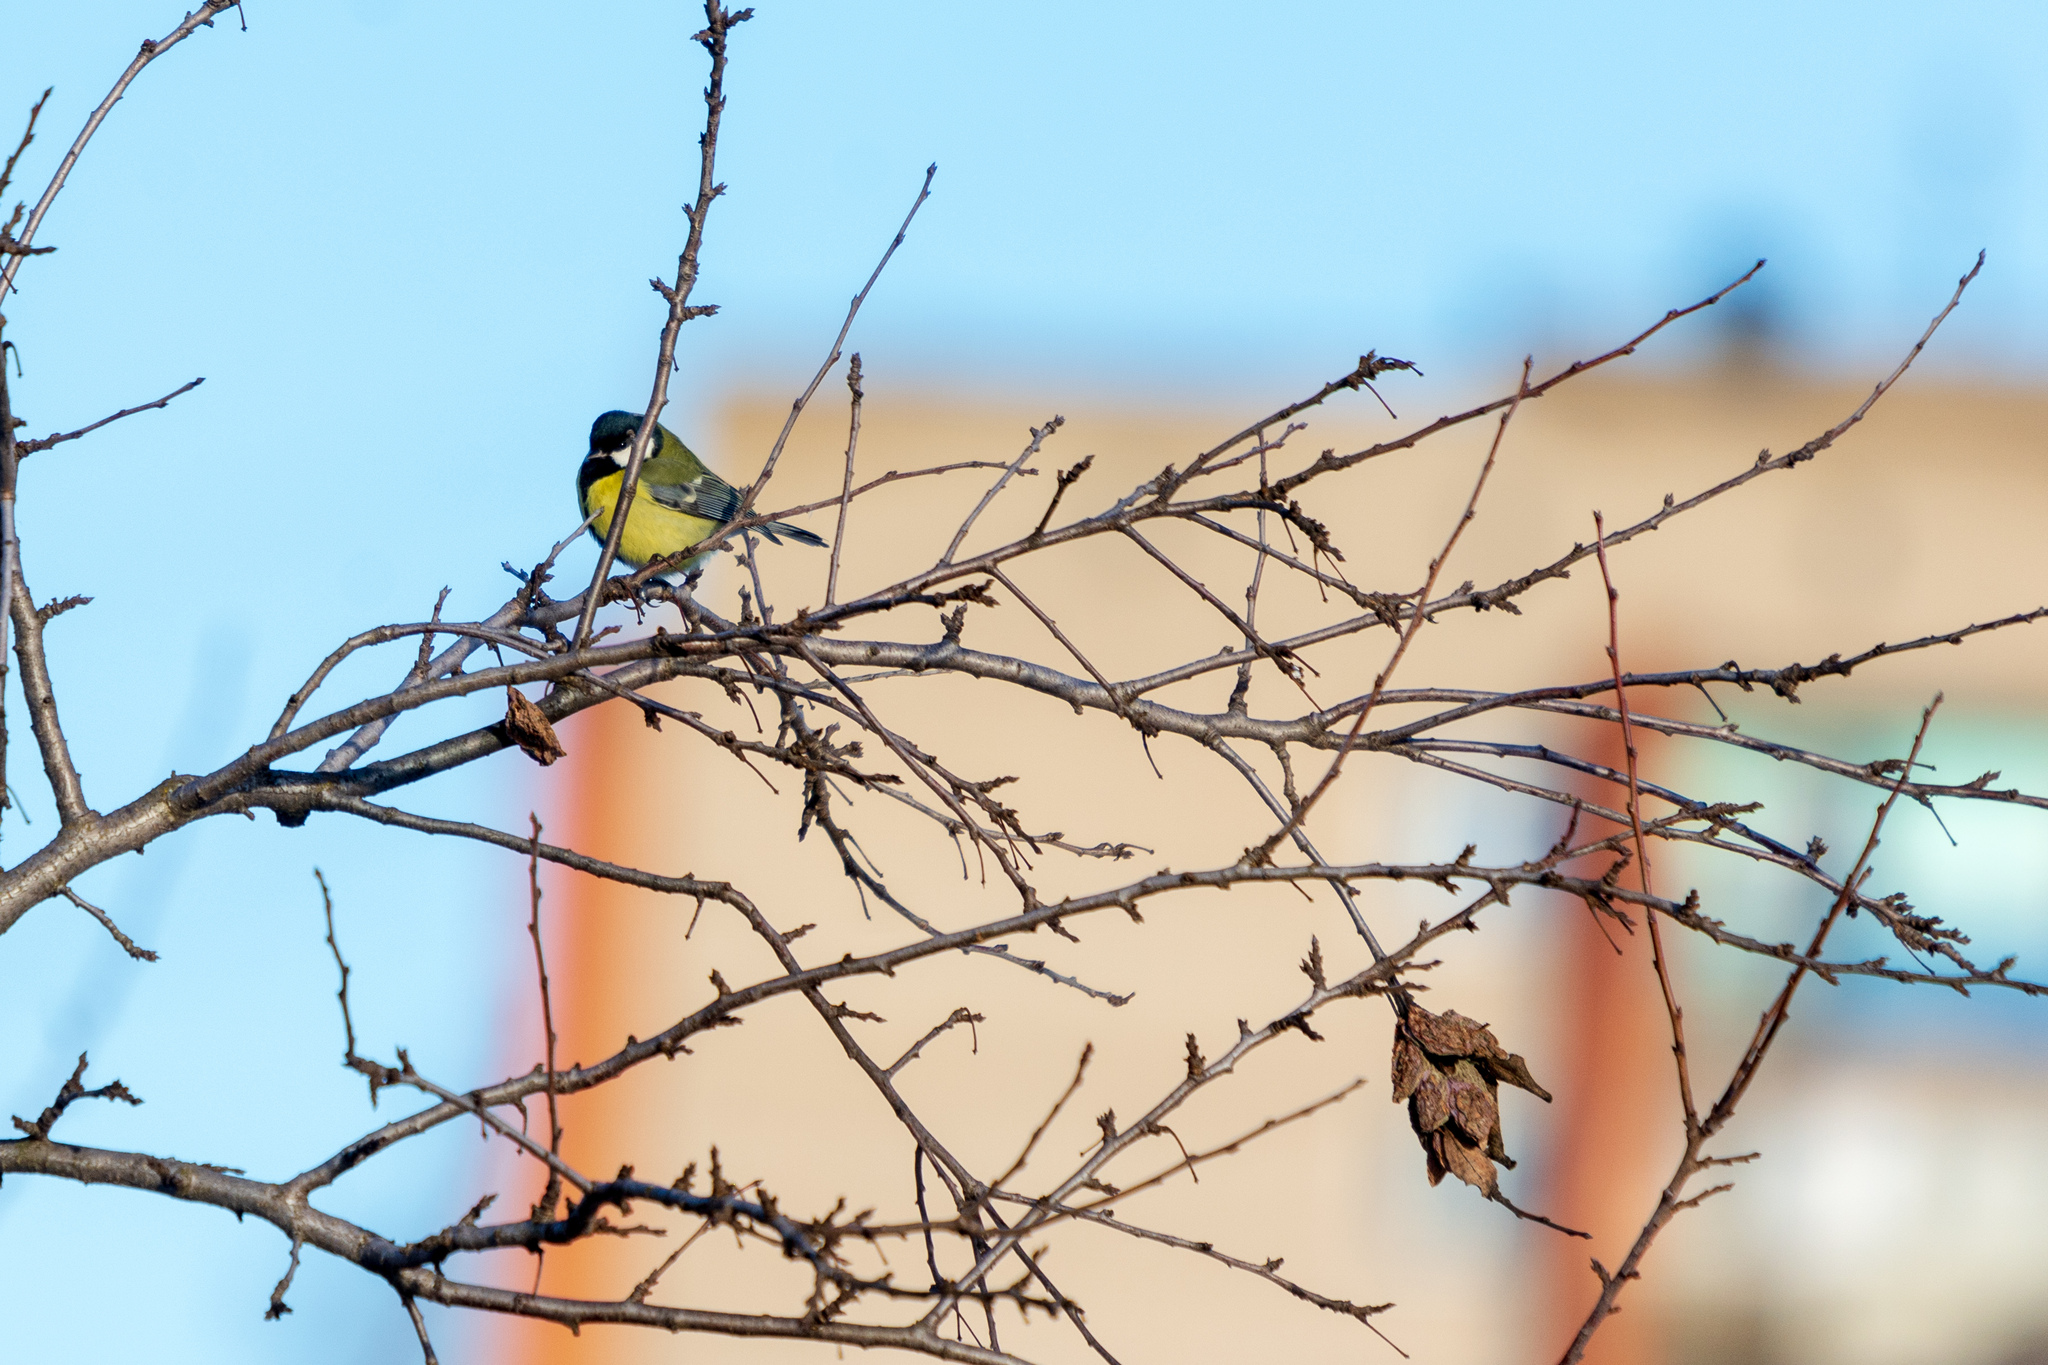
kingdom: Animalia
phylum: Chordata
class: Aves
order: Passeriformes
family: Paridae
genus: Parus
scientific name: Parus major
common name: Great tit
